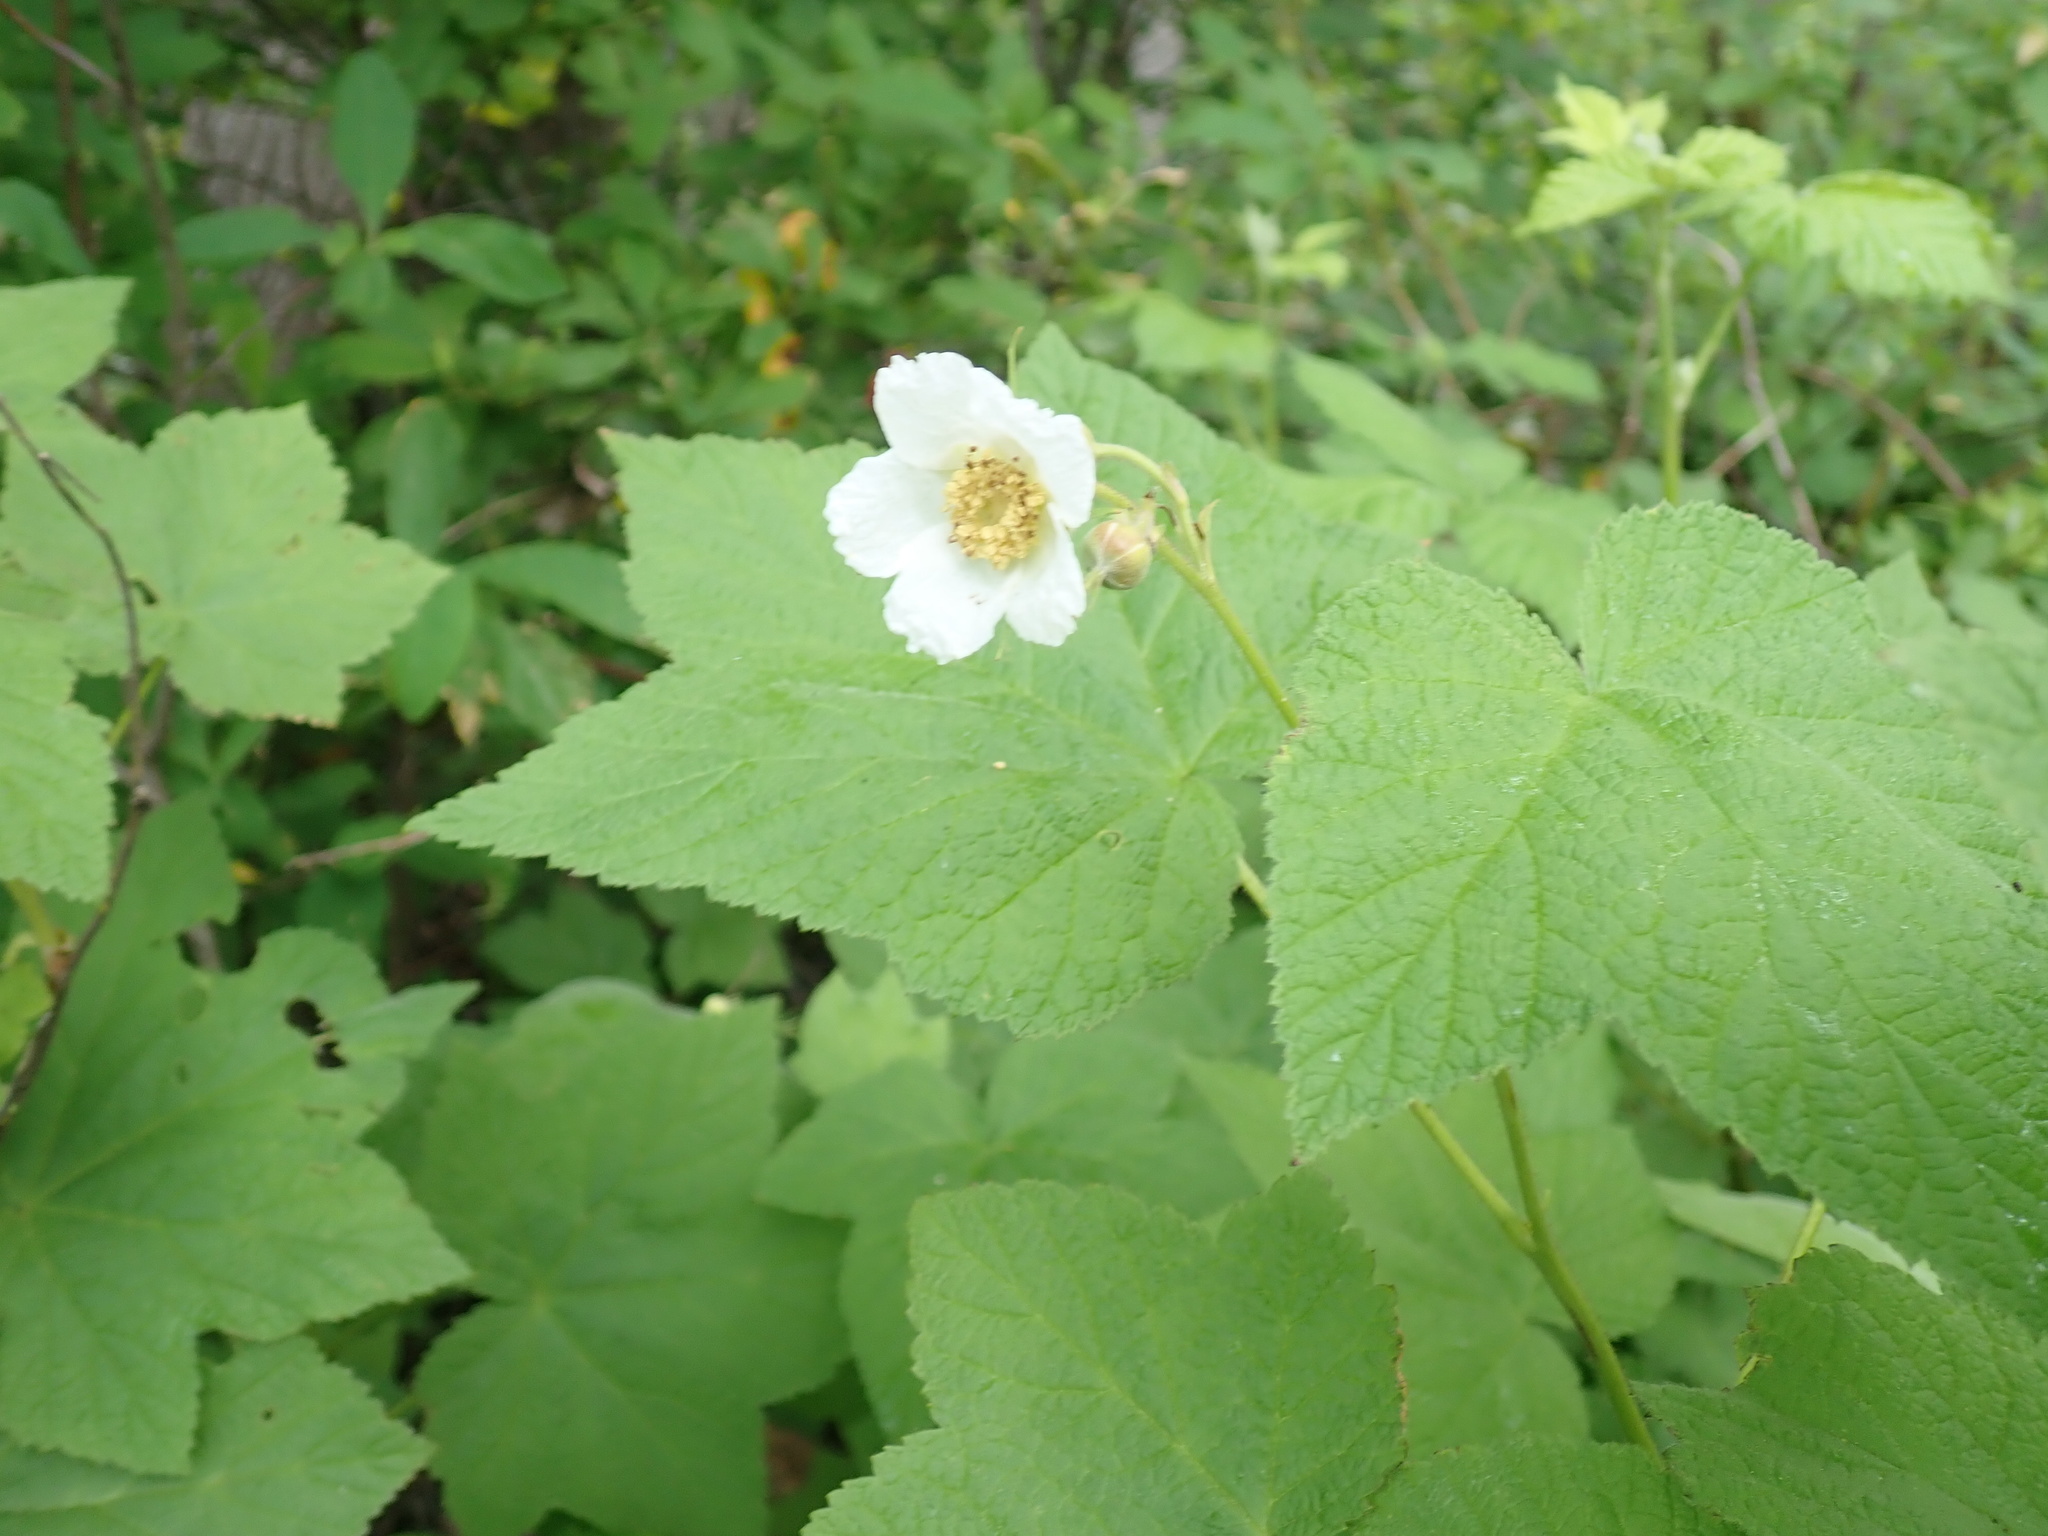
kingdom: Plantae
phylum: Tracheophyta
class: Magnoliopsida
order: Rosales
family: Rosaceae
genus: Rubus
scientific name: Rubus parviflorus
